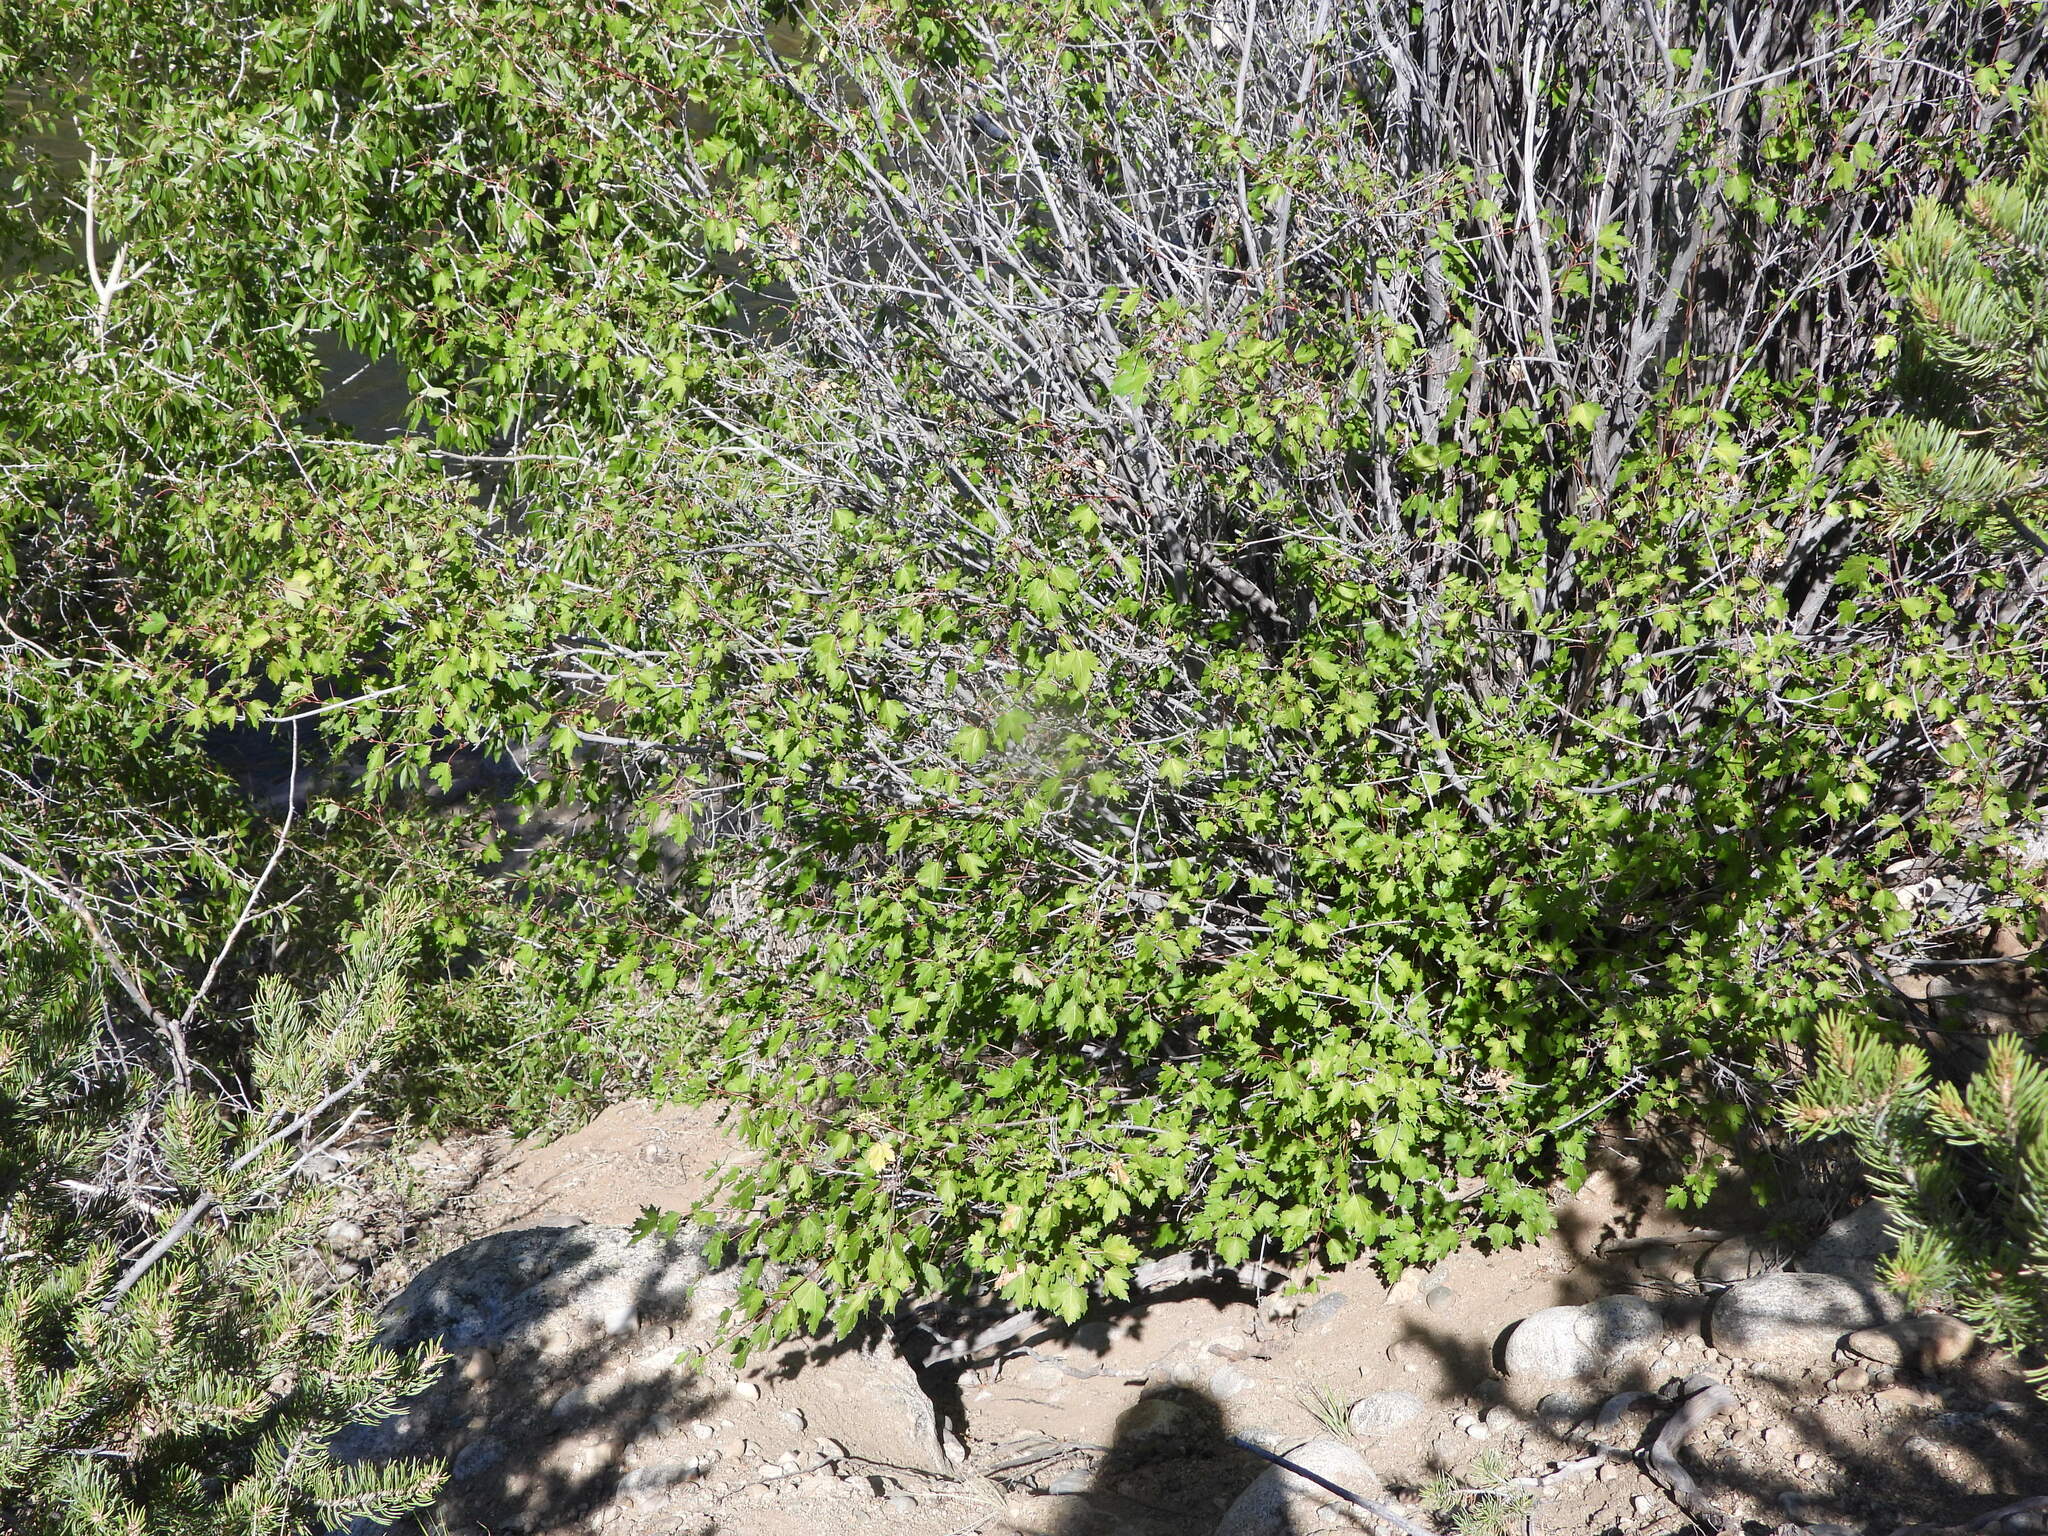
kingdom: Plantae
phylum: Tracheophyta
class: Magnoliopsida
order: Sapindales
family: Sapindaceae
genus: Acer
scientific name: Acer glabrum
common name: Rocky mountain maple
